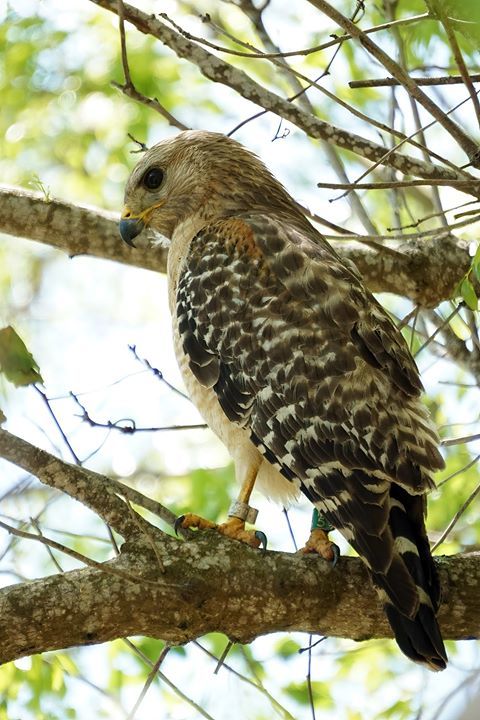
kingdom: Animalia
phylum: Chordata
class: Aves
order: Accipitriformes
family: Accipitridae
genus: Buteo
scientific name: Buteo lineatus
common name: Red-shouldered hawk
